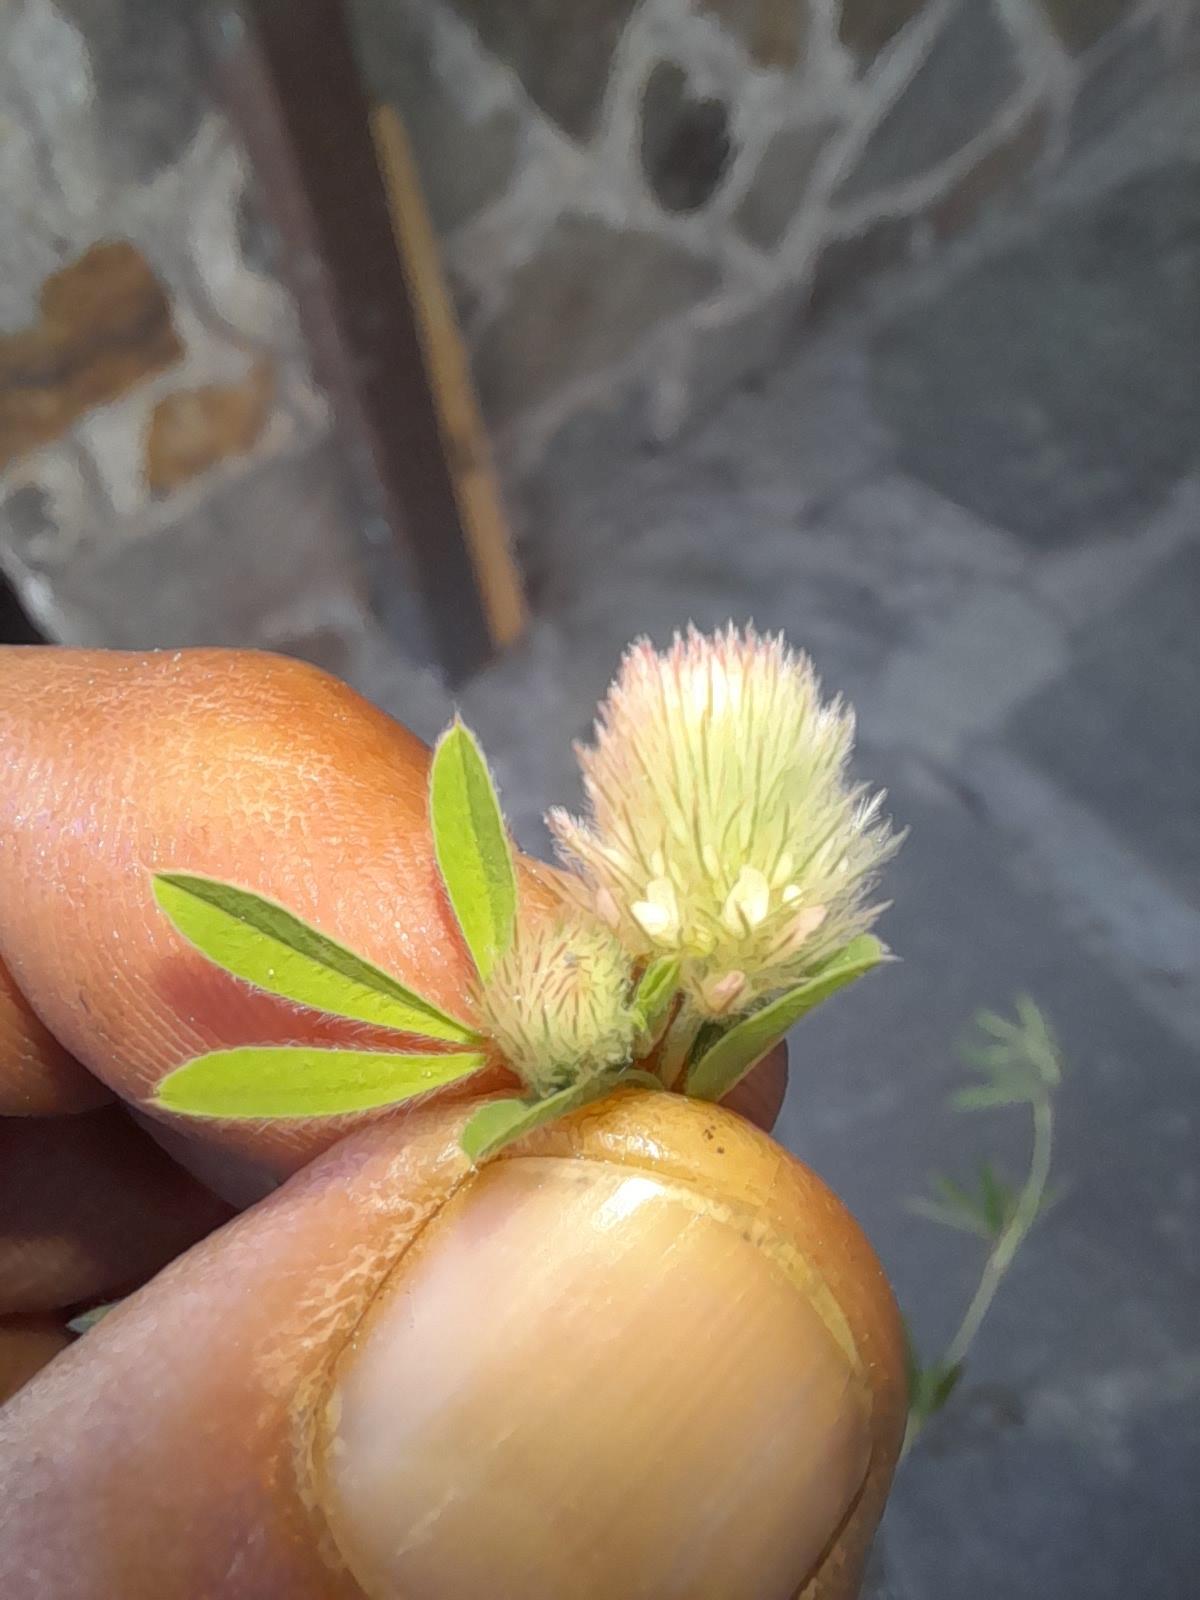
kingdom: Plantae
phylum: Tracheophyta
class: Magnoliopsida
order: Fabales
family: Fabaceae
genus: Trifolium
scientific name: Trifolium arvense
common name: Hare's-foot clover
